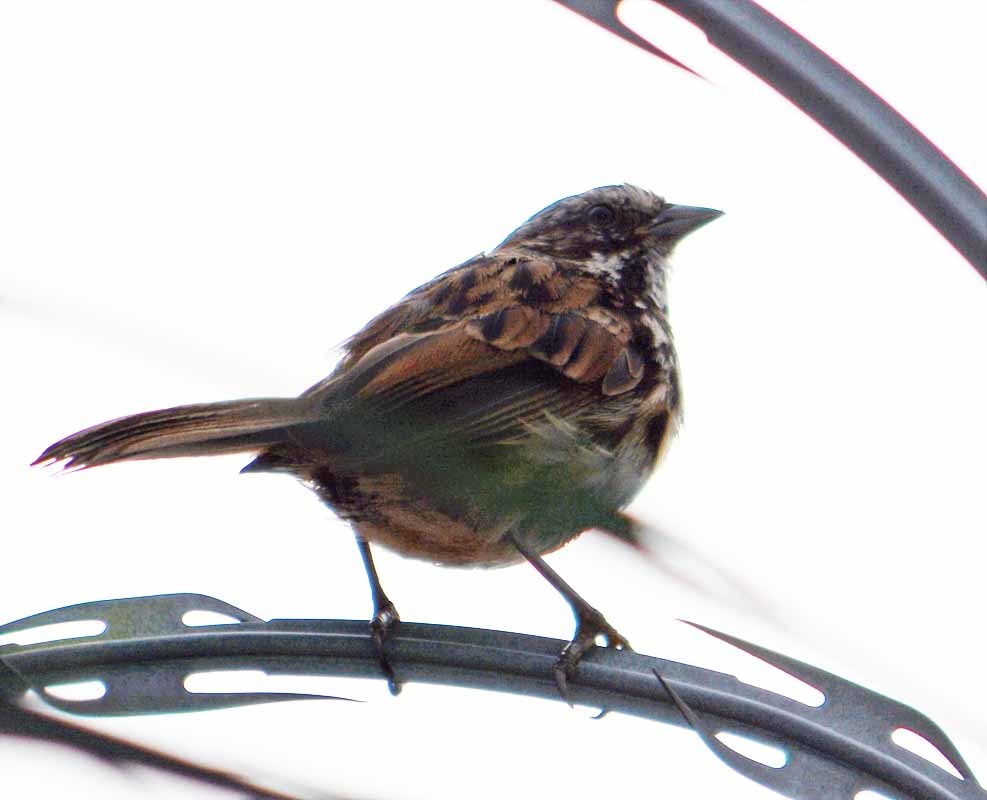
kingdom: Animalia
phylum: Chordata
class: Aves
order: Passeriformes
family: Passerellidae
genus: Melospiza
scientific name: Melospiza melodia
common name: Song sparrow
